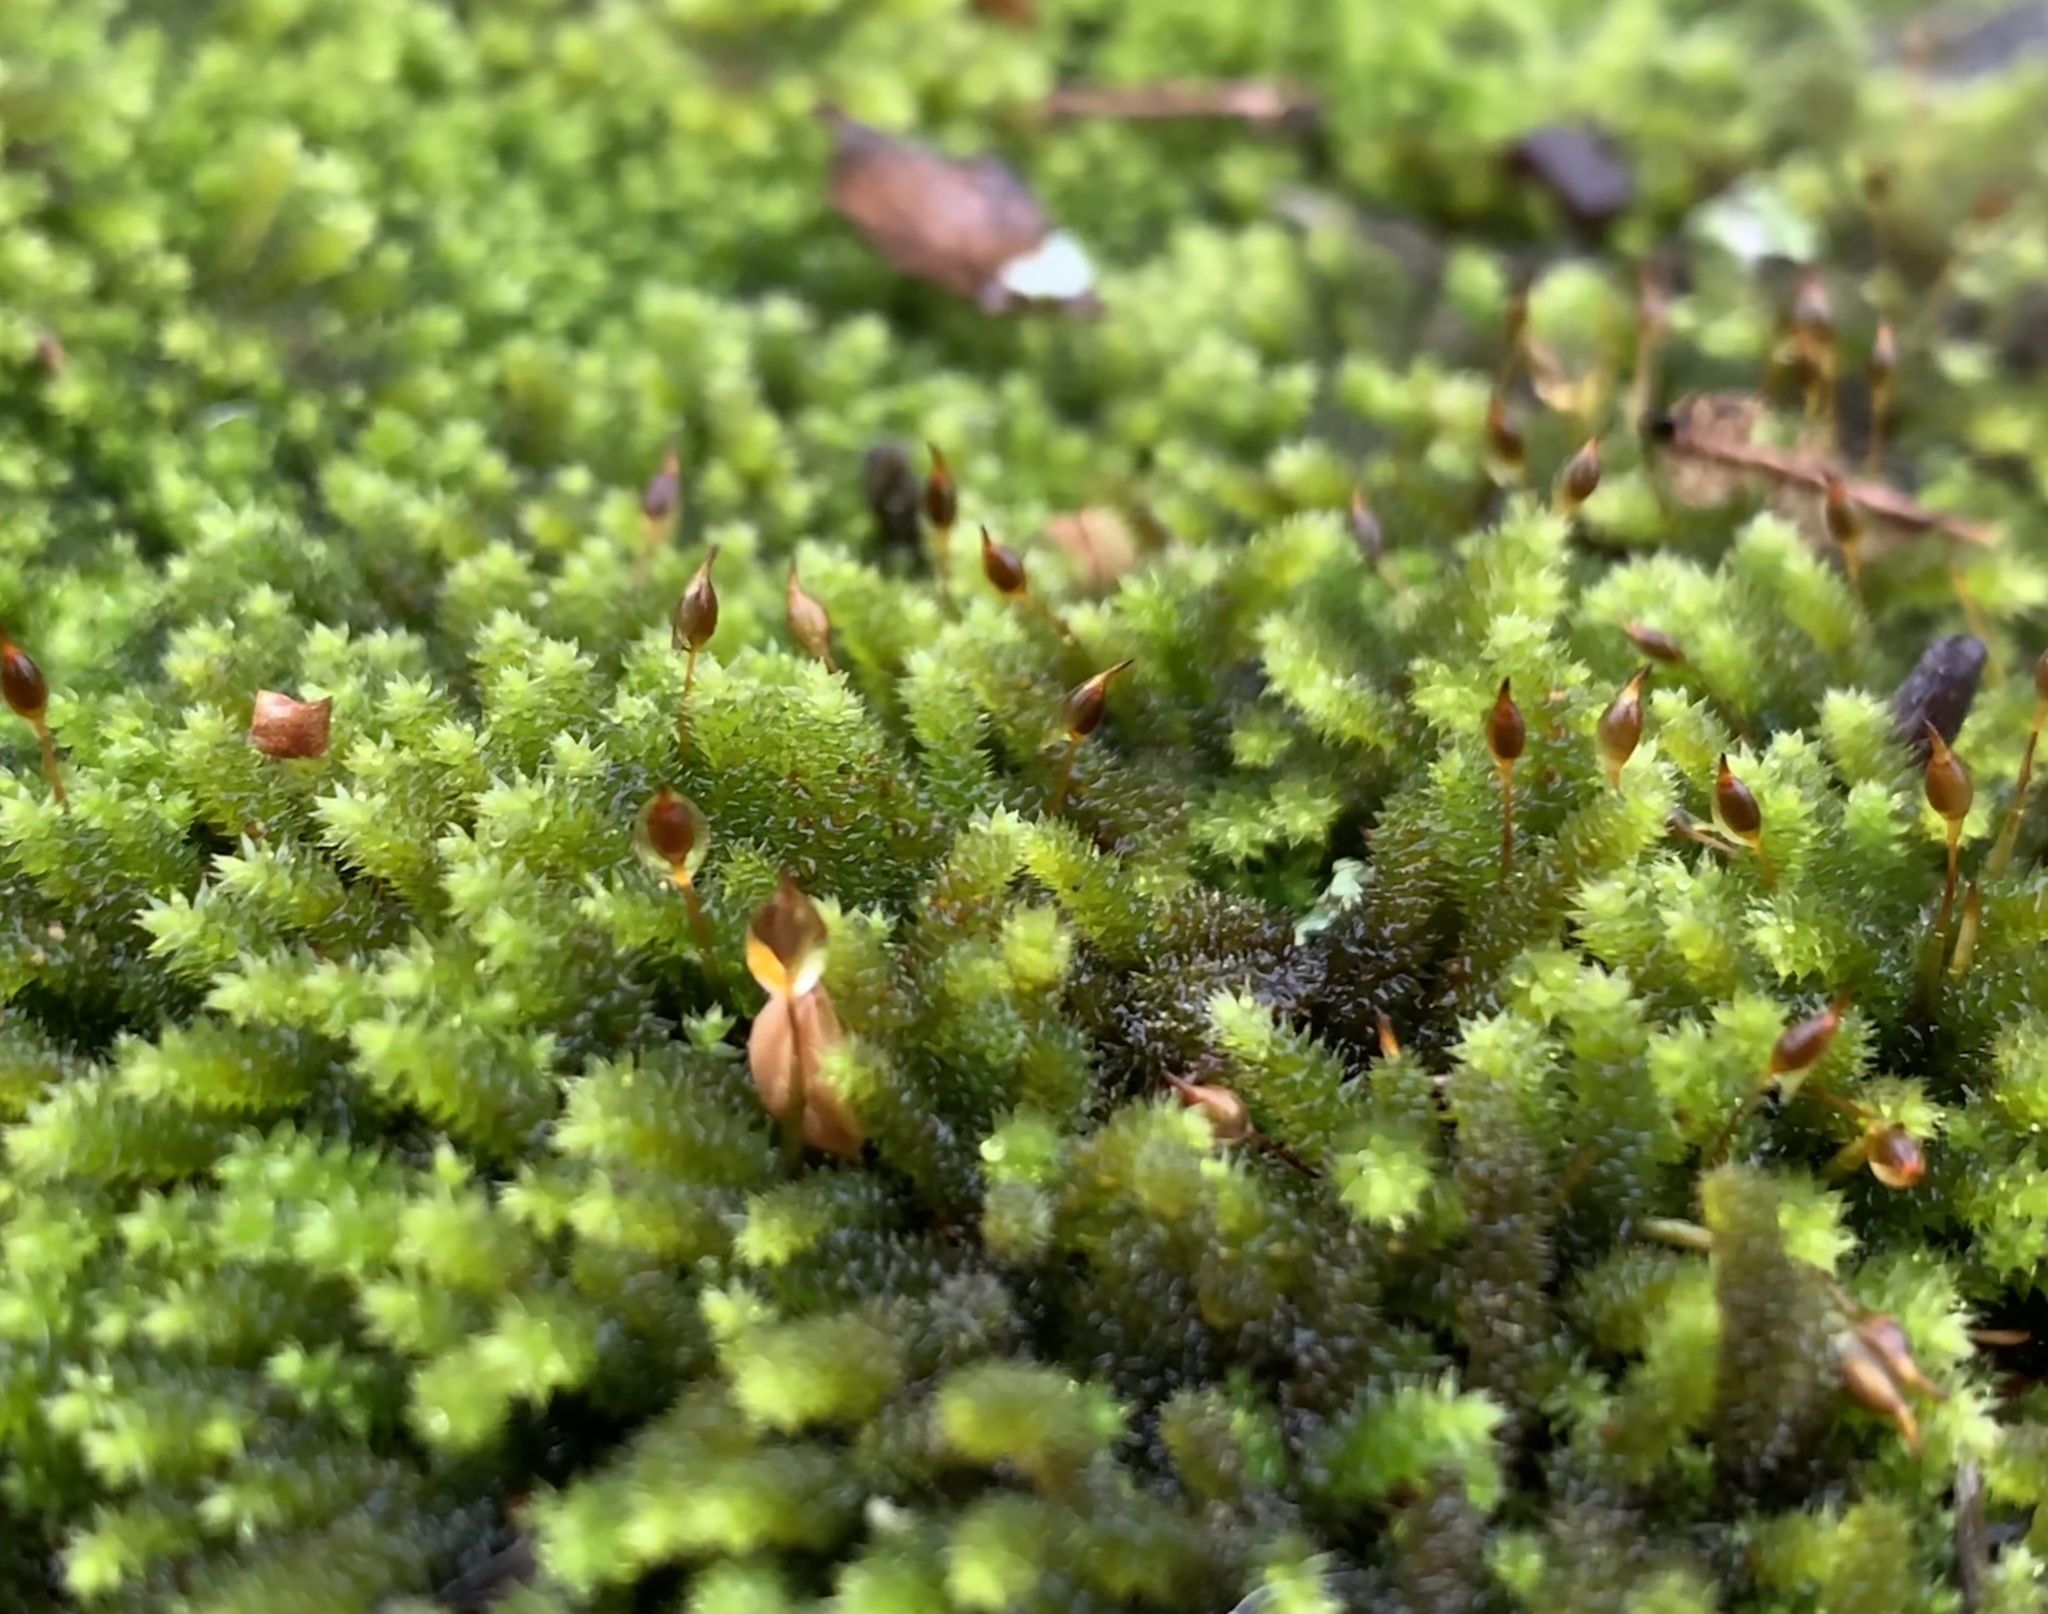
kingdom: Plantae
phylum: Bryophyta
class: Bryopsida
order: Hypnales
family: Leucodontaceae
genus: Leucodon
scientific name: Leucodon julaceus
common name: Smooth hook moss
